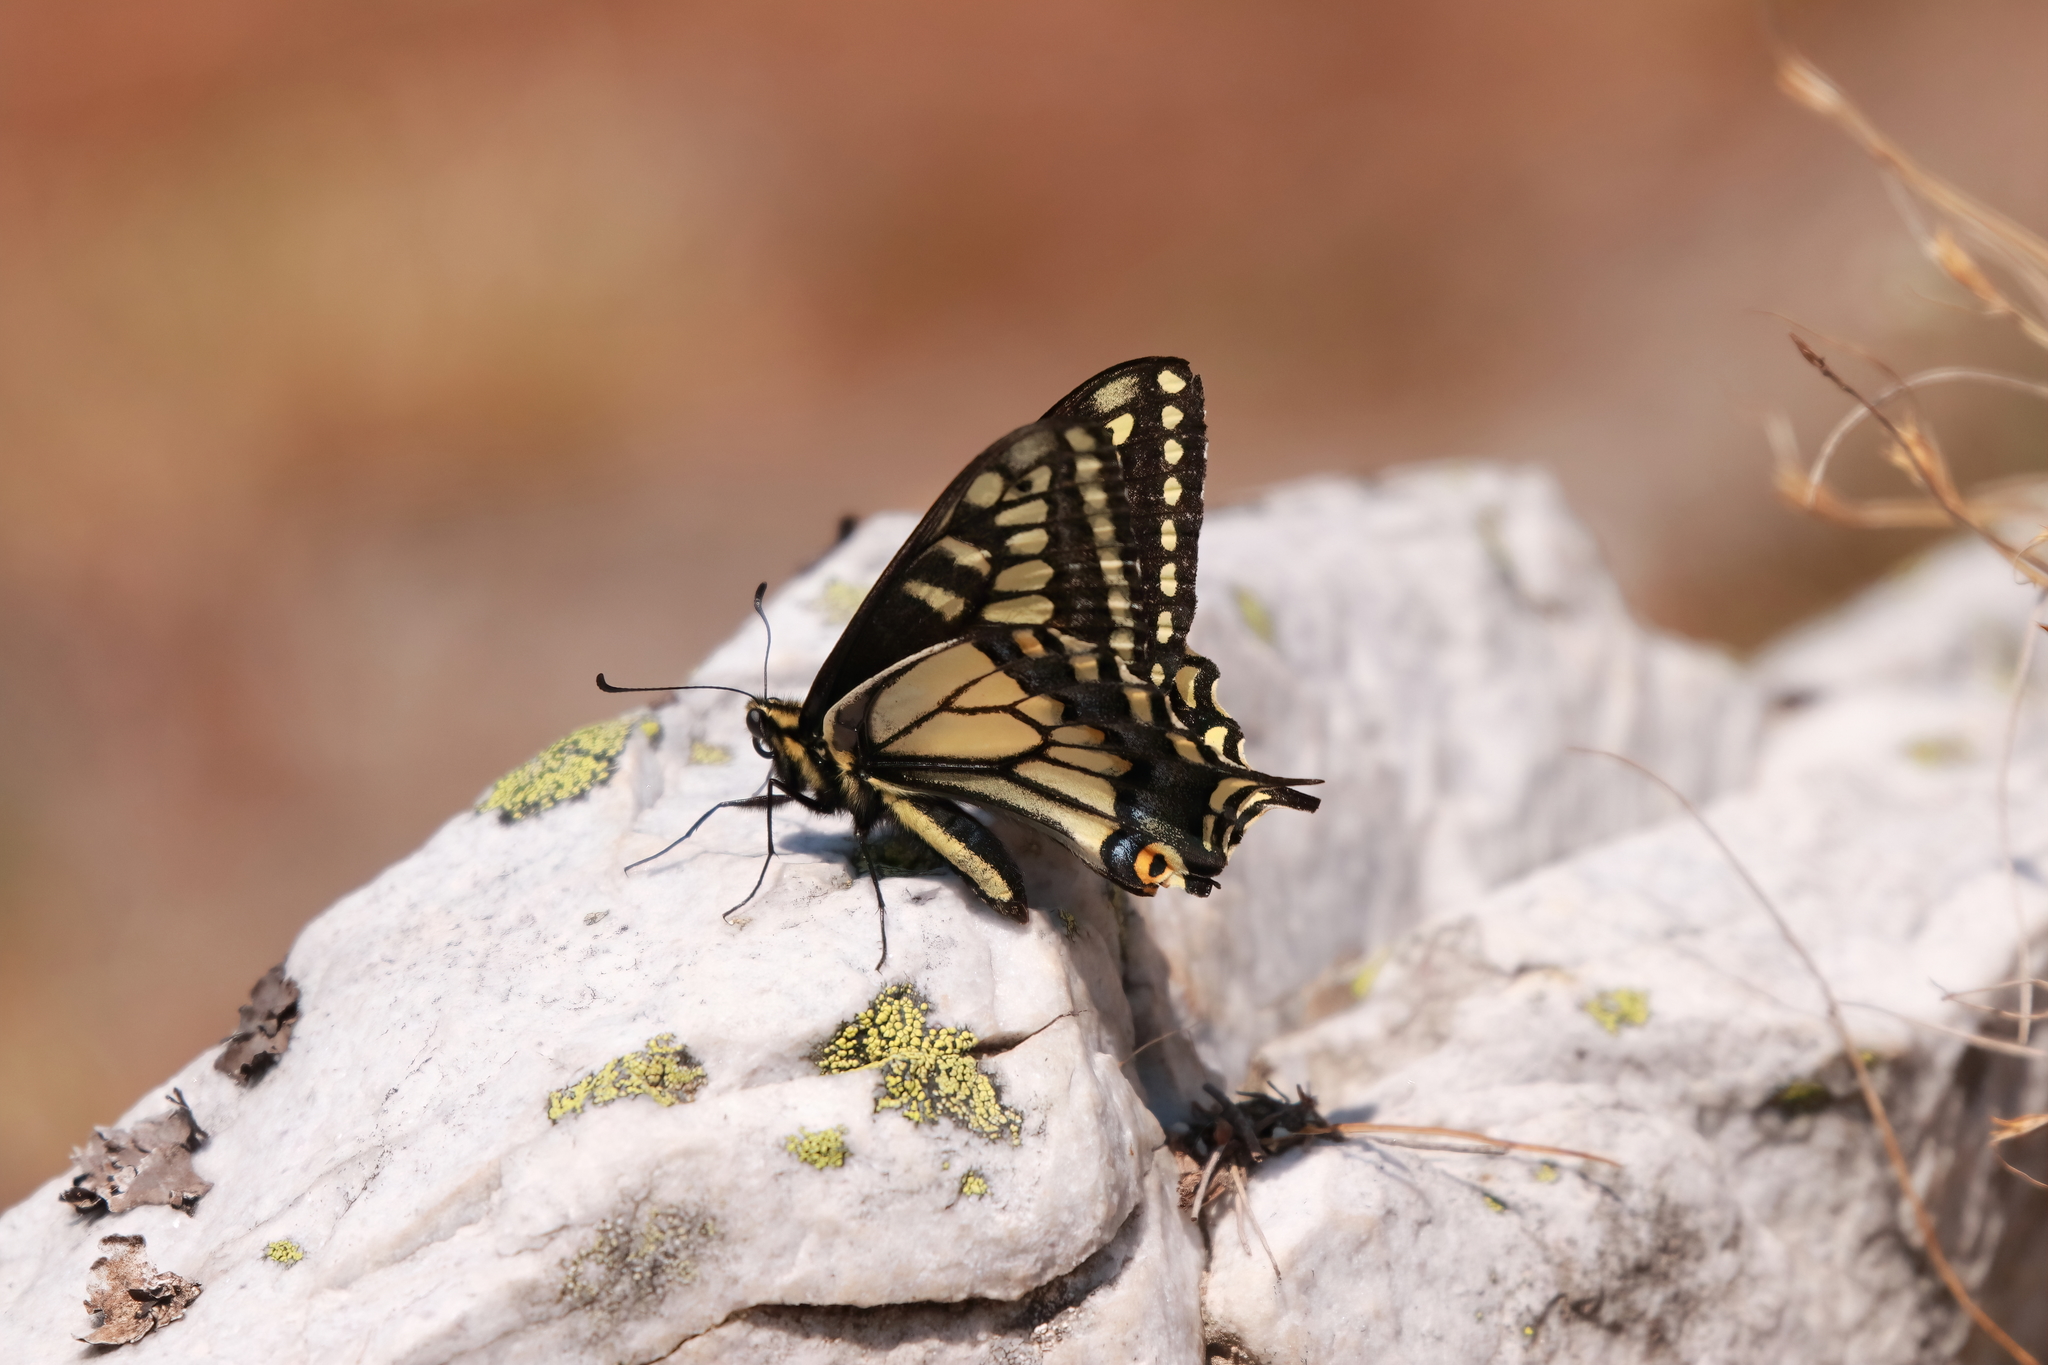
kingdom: Animalia
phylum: Arthropoda
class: Insecta
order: Lepidoptera
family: Papilionidae
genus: Papilio
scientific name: Papilio zelicaon
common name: Anise swallowtail
